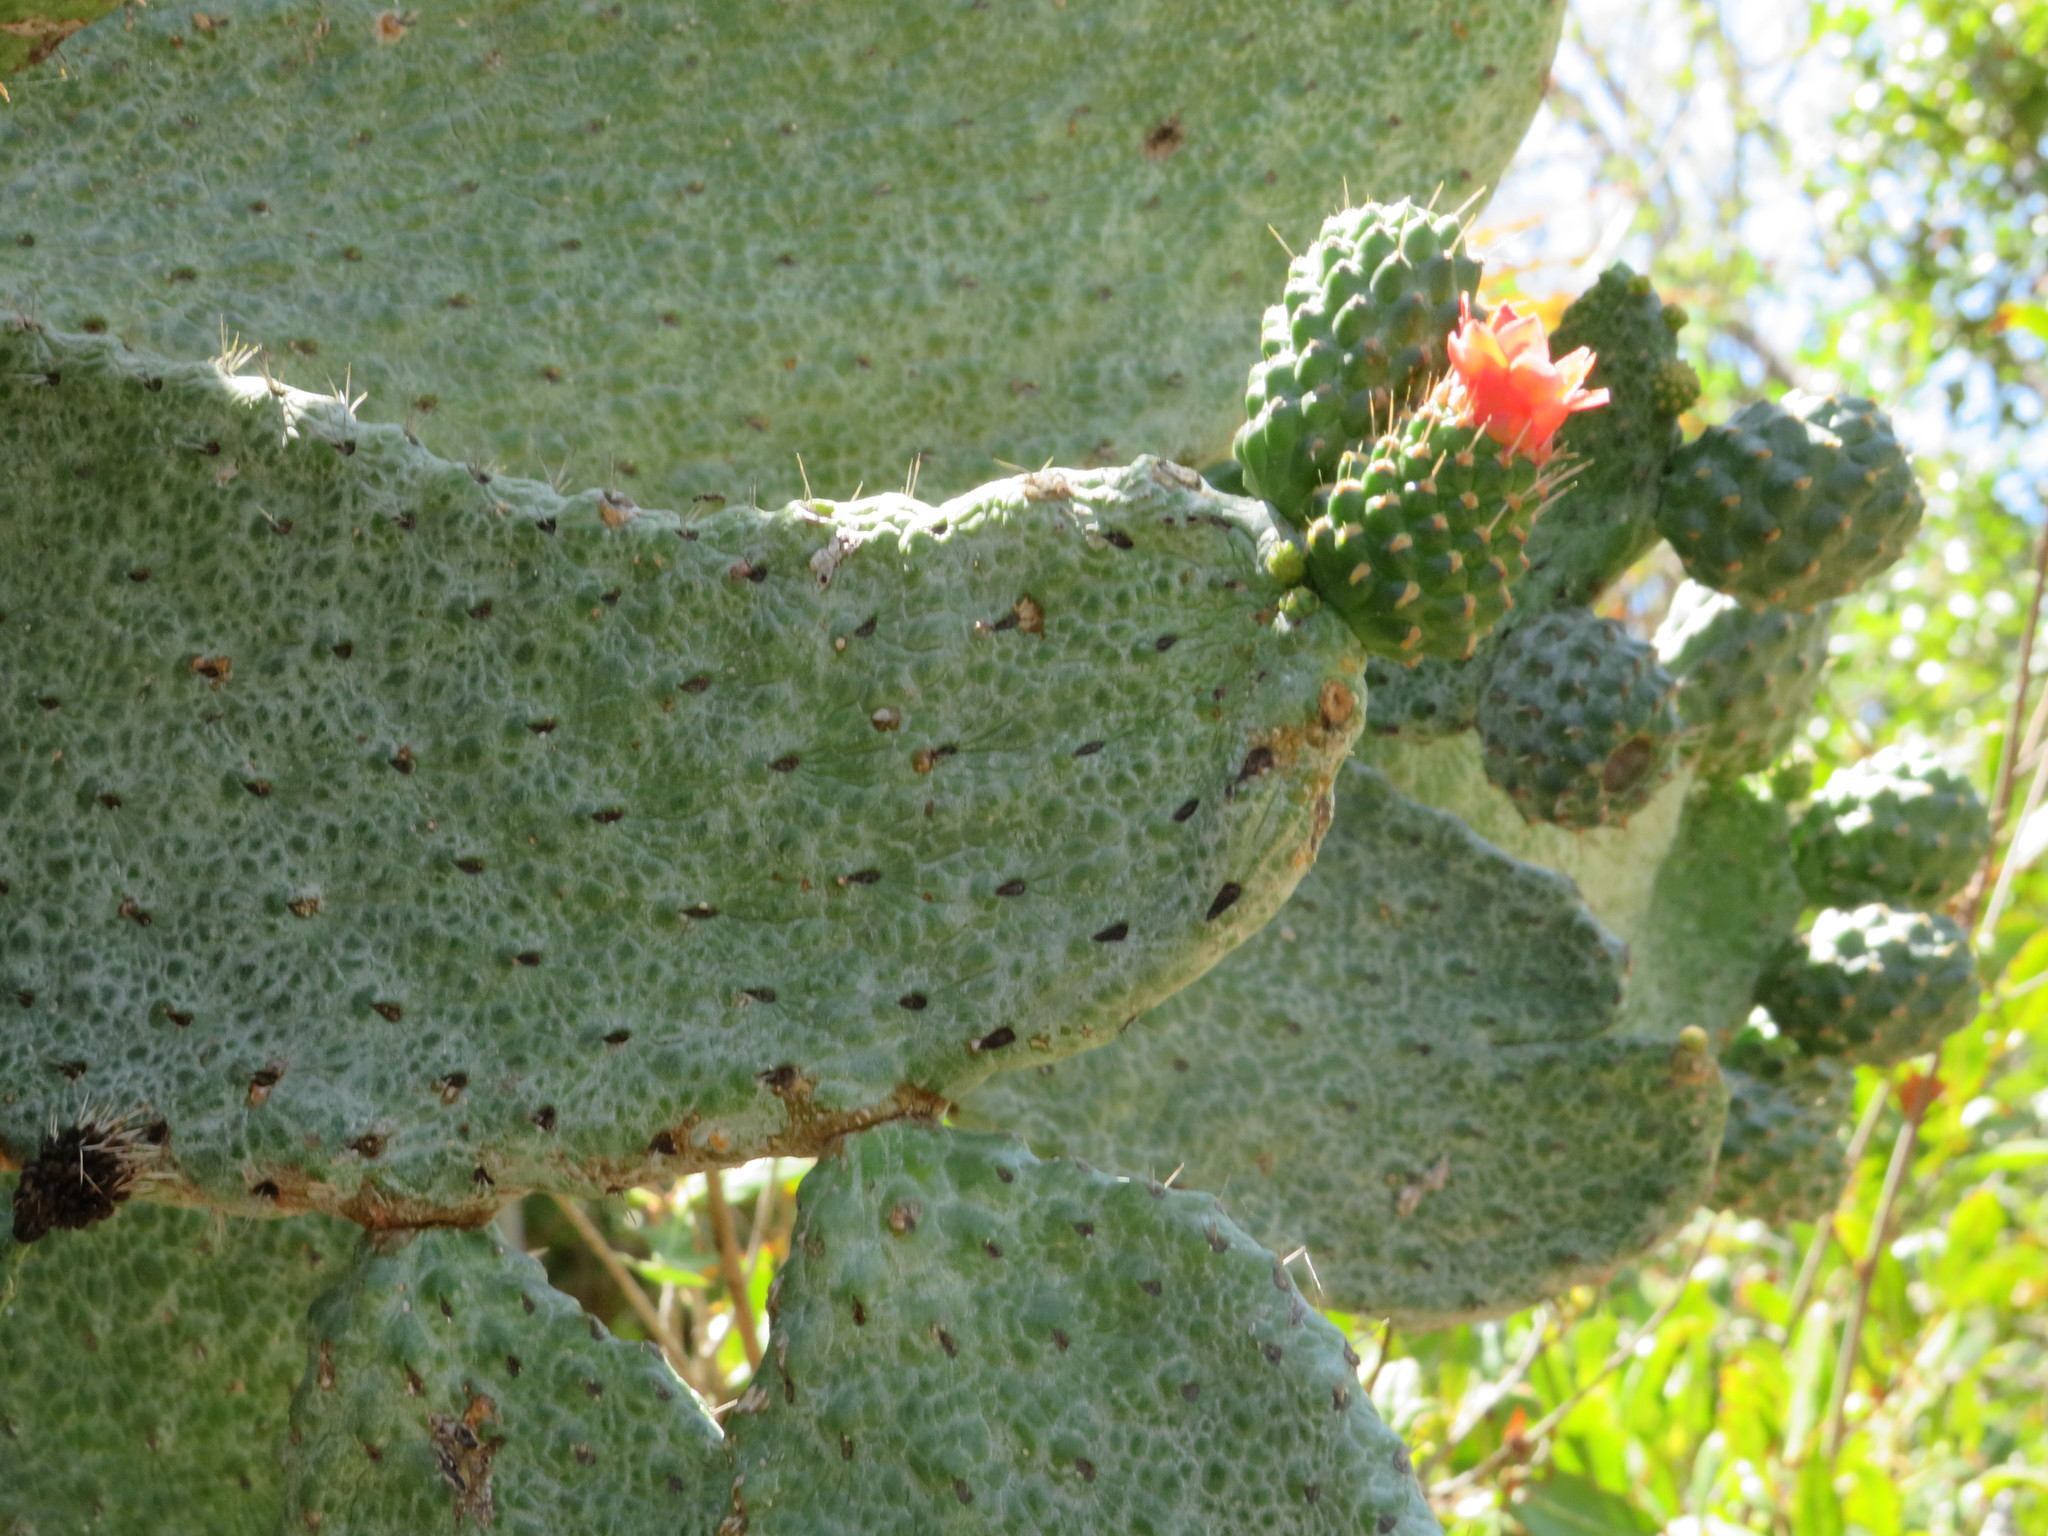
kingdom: Plantae
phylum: Tracheophyta
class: Magnoliopsida
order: Caryophyllales
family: Cactaceae
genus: Consolea
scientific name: Consolea moniliformis
